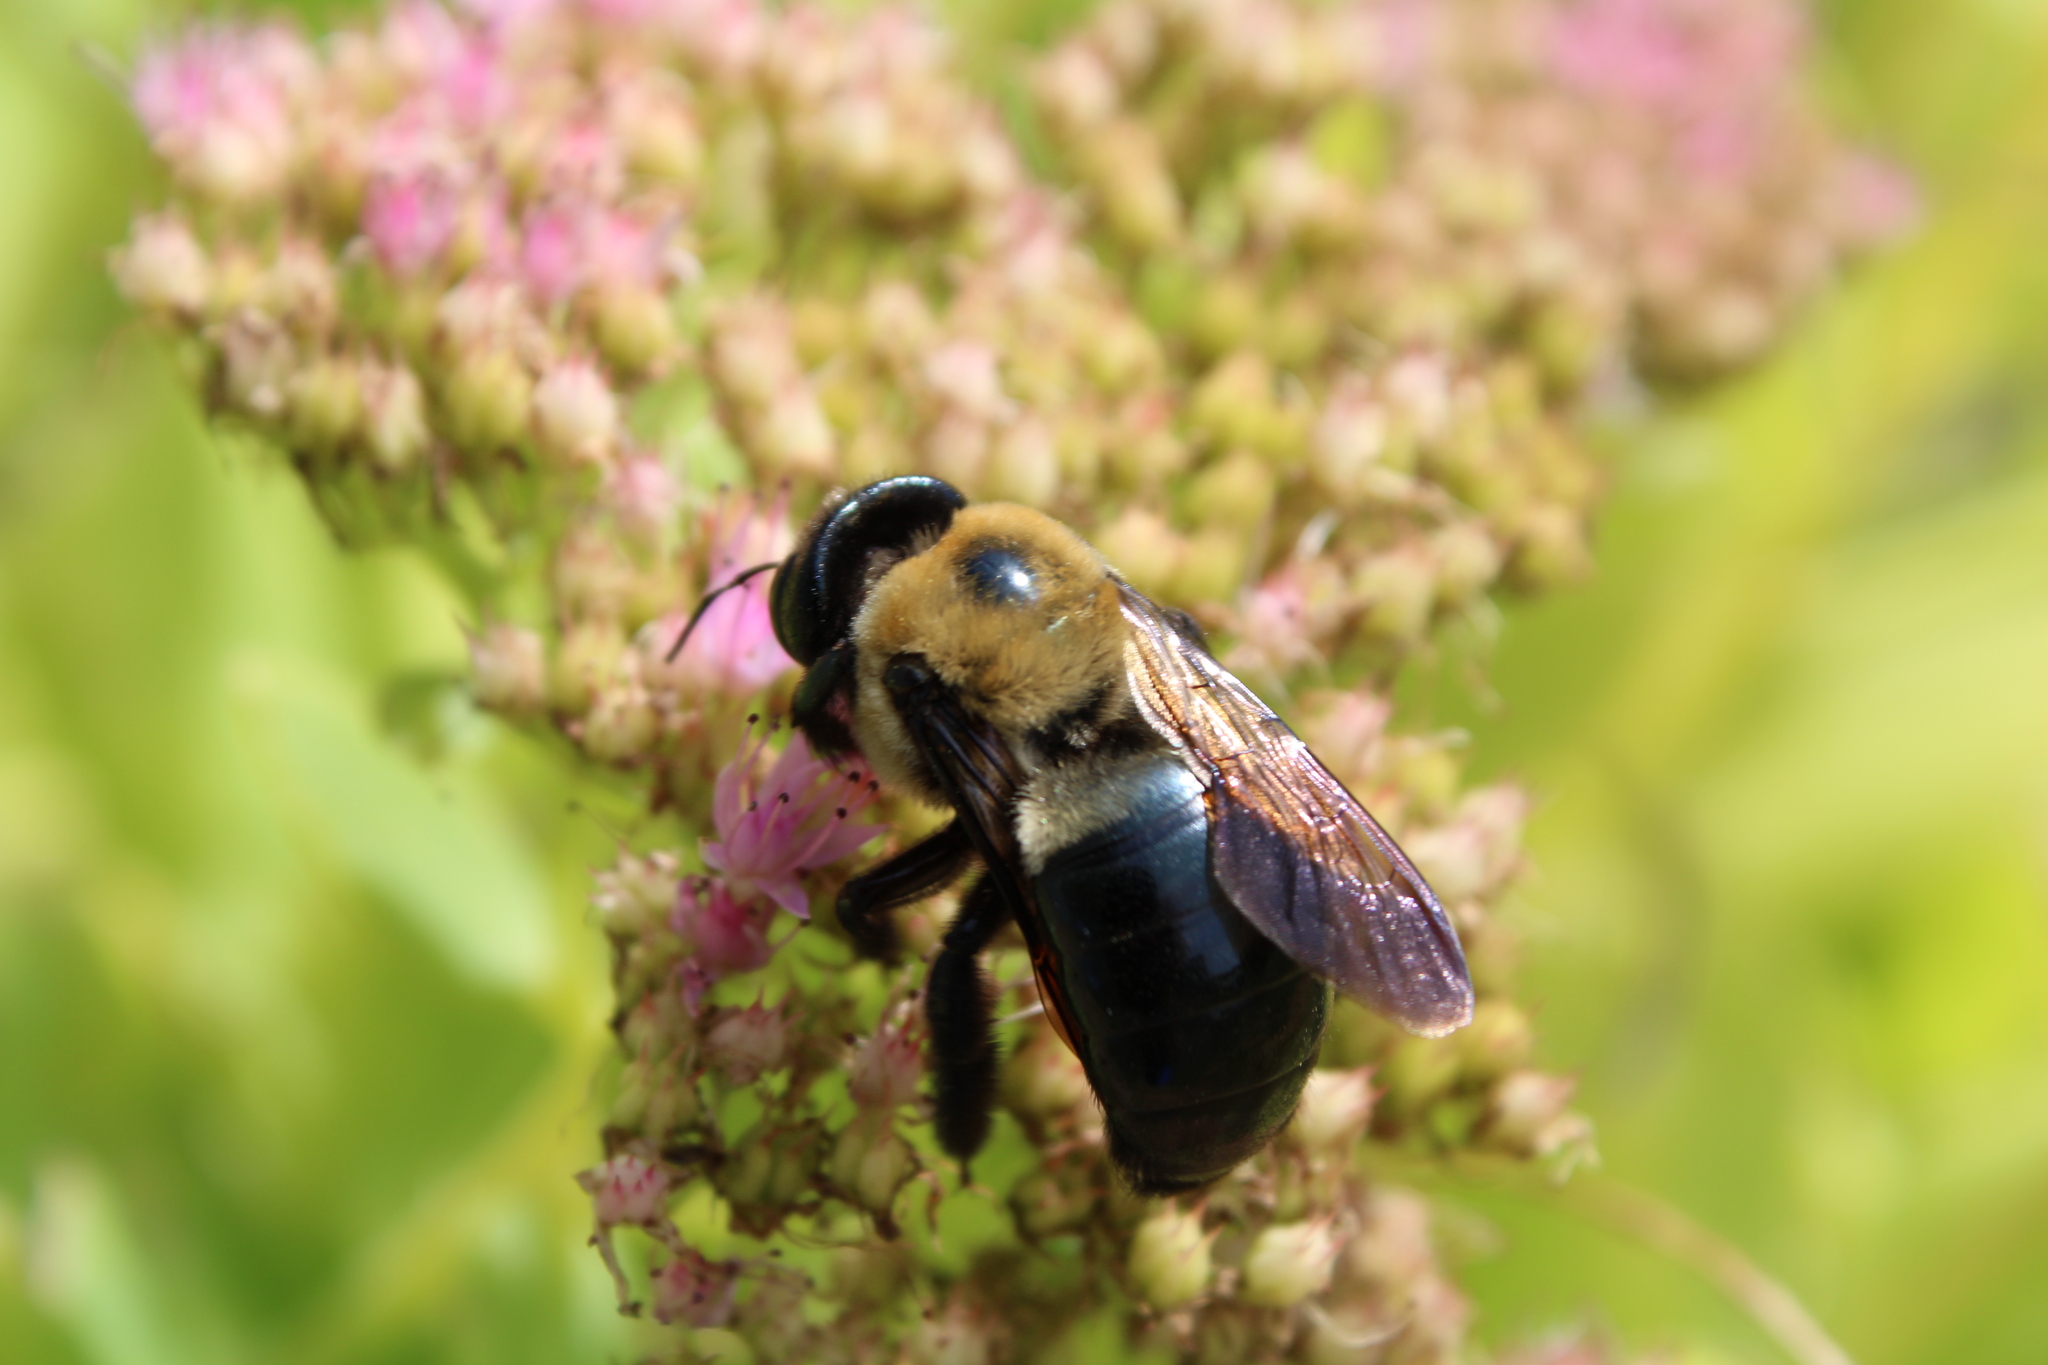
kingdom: Animalia
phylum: Arthropoda
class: Insecta
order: Hymenoptera
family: Apidae
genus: Xylocopa
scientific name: Xylocopa virginica
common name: Carpenter bee
